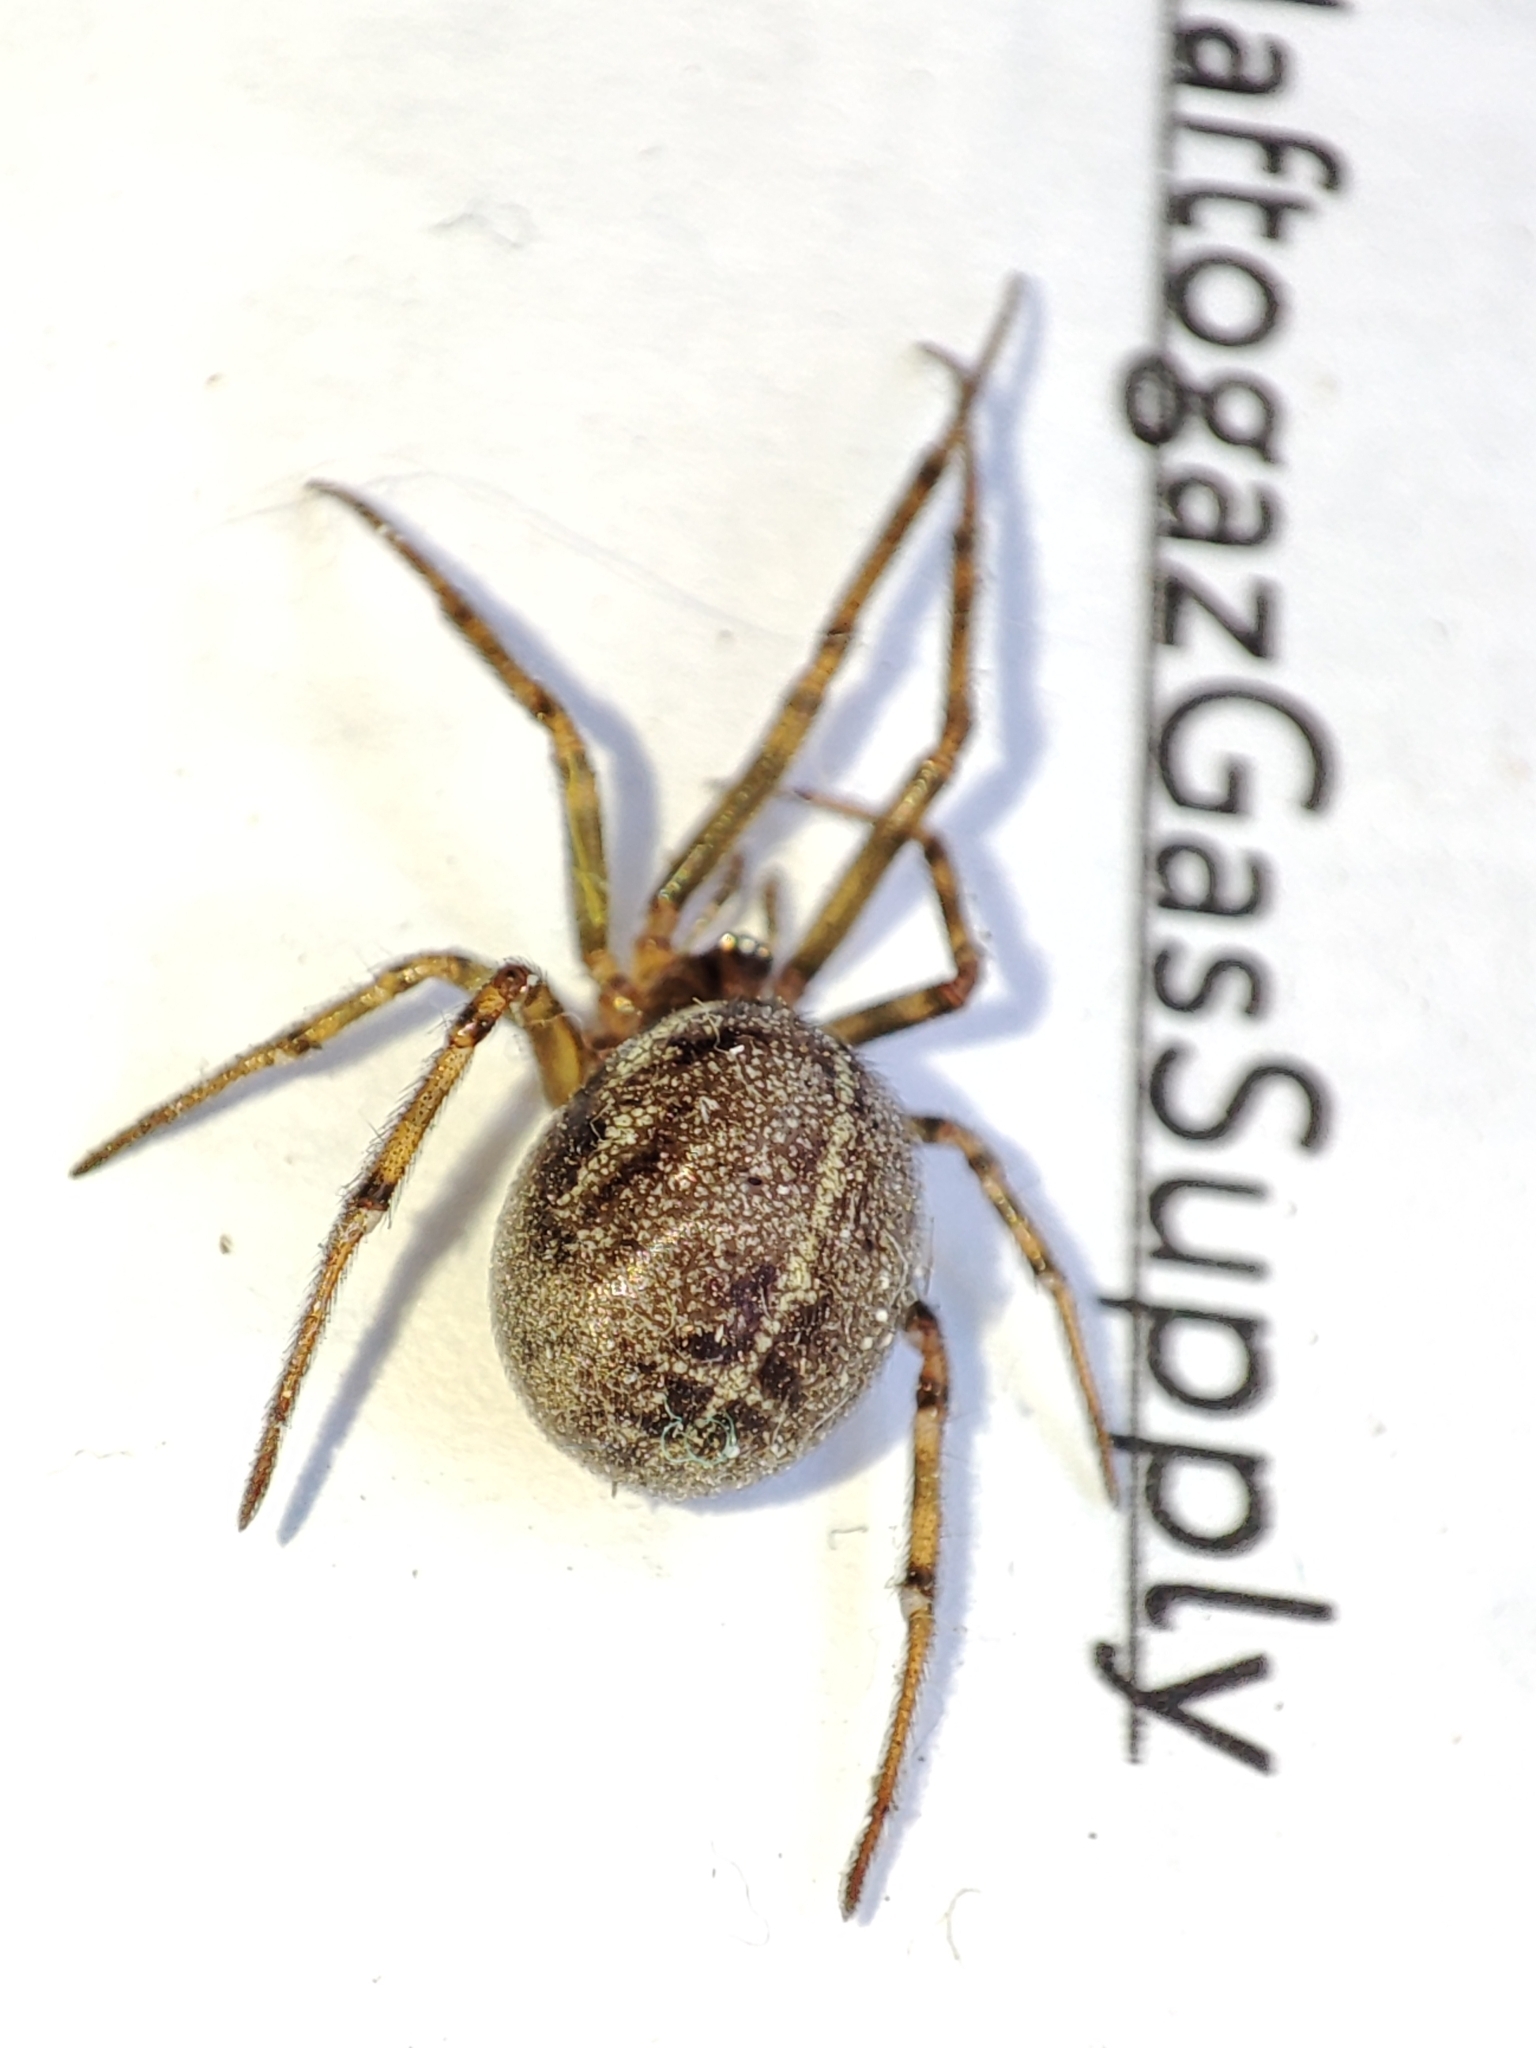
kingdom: Animalia
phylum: Arthropoda
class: Arachnida
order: Araneae
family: Theridiidae
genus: Steatoda
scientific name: Steatoda castanea
